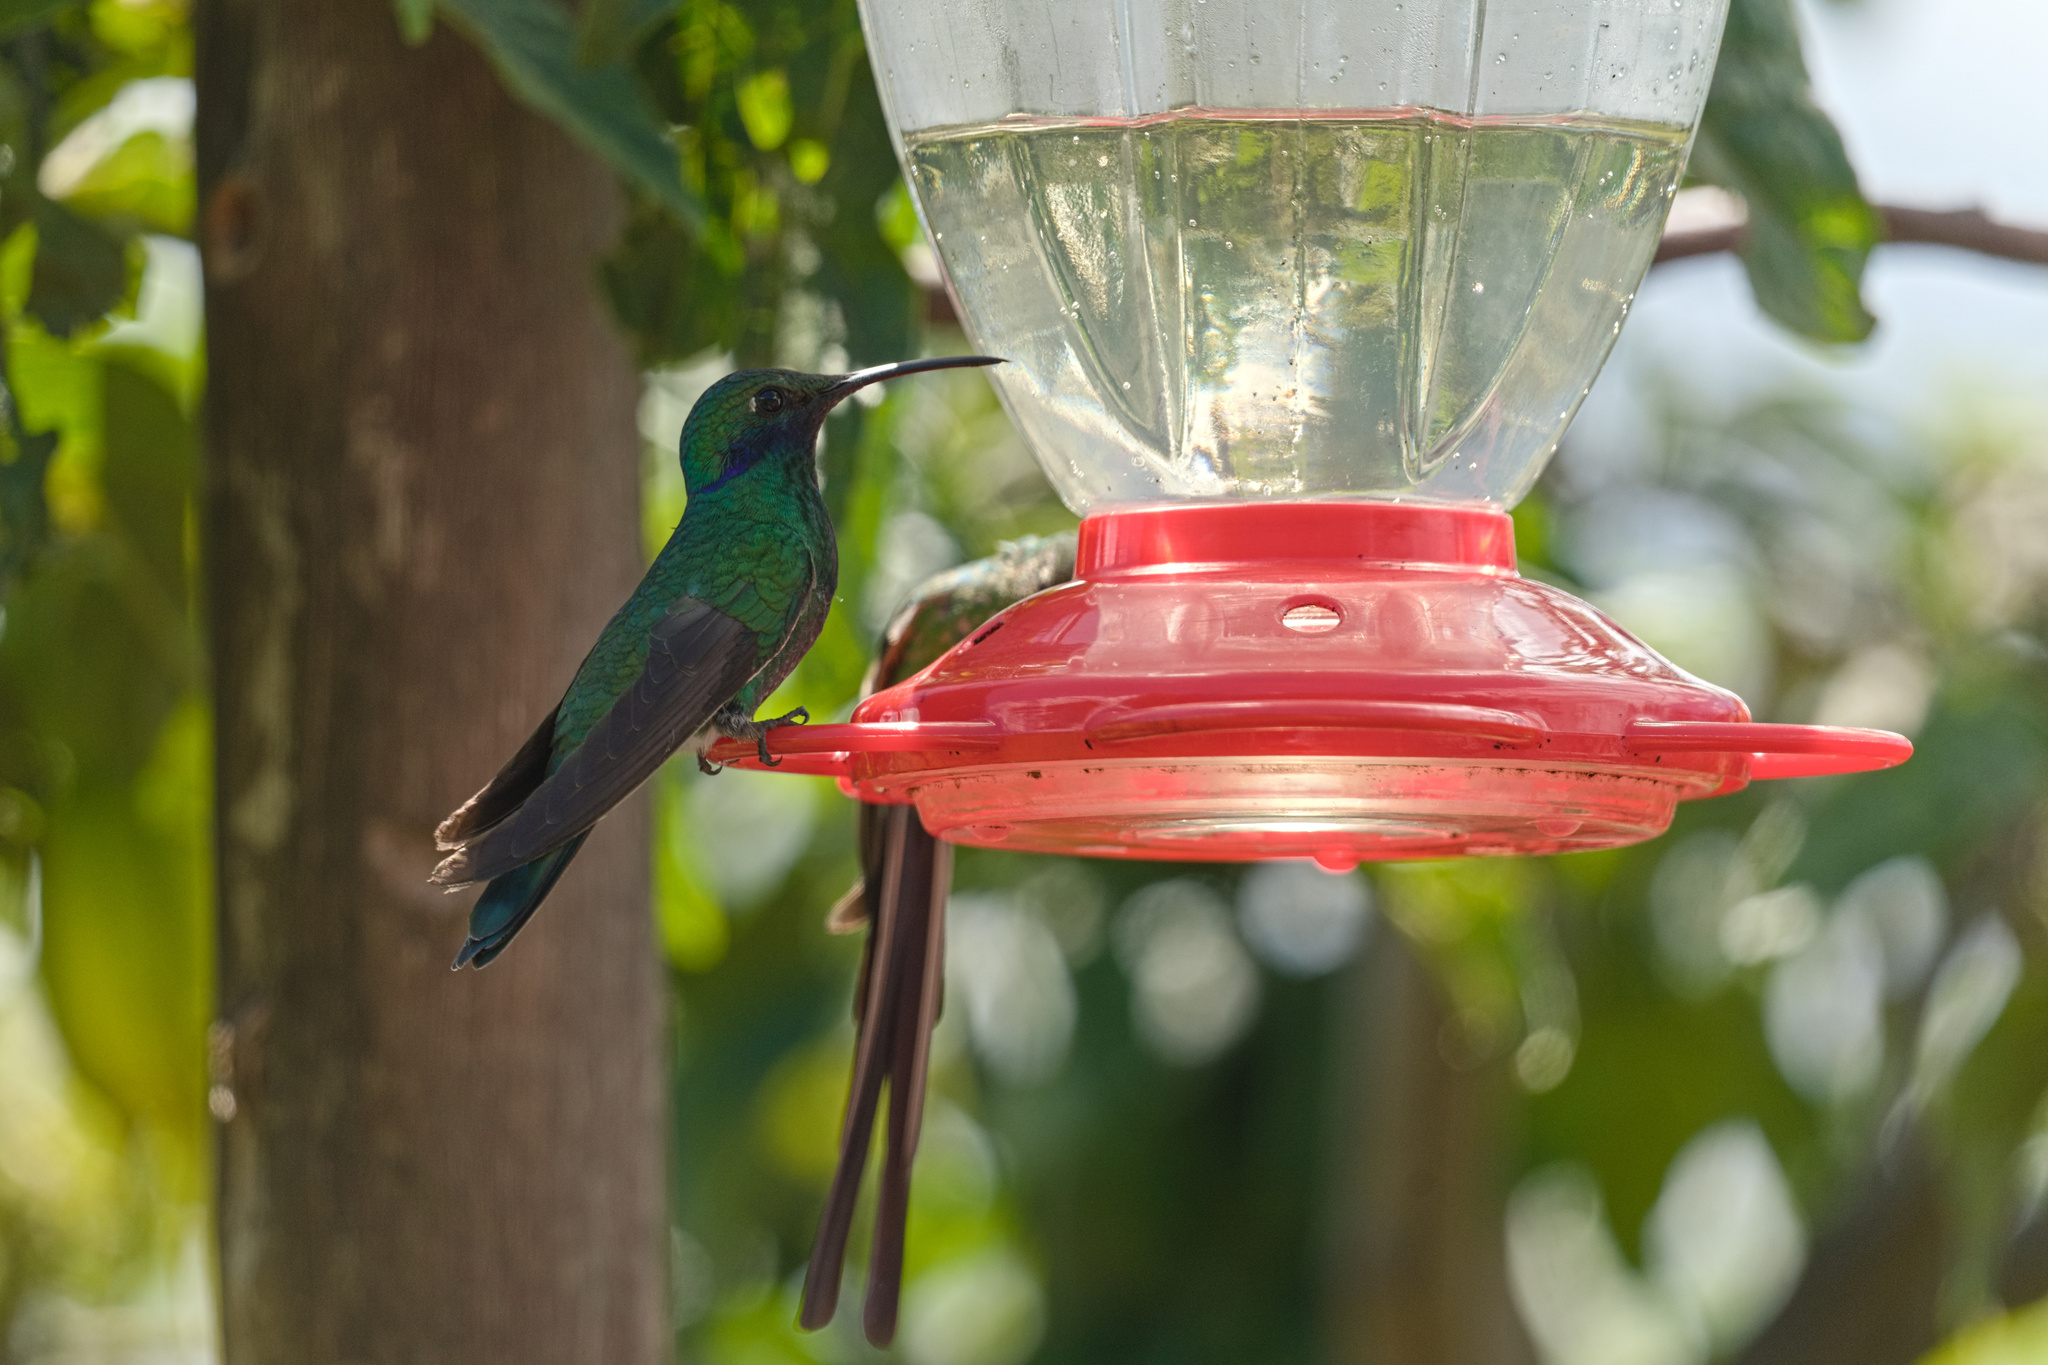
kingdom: Animalia
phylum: Chordata
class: Aves
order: Apodiformes
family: Trochilidae
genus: Colibri
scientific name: Colibri coruscans
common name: Sparkling violetear
